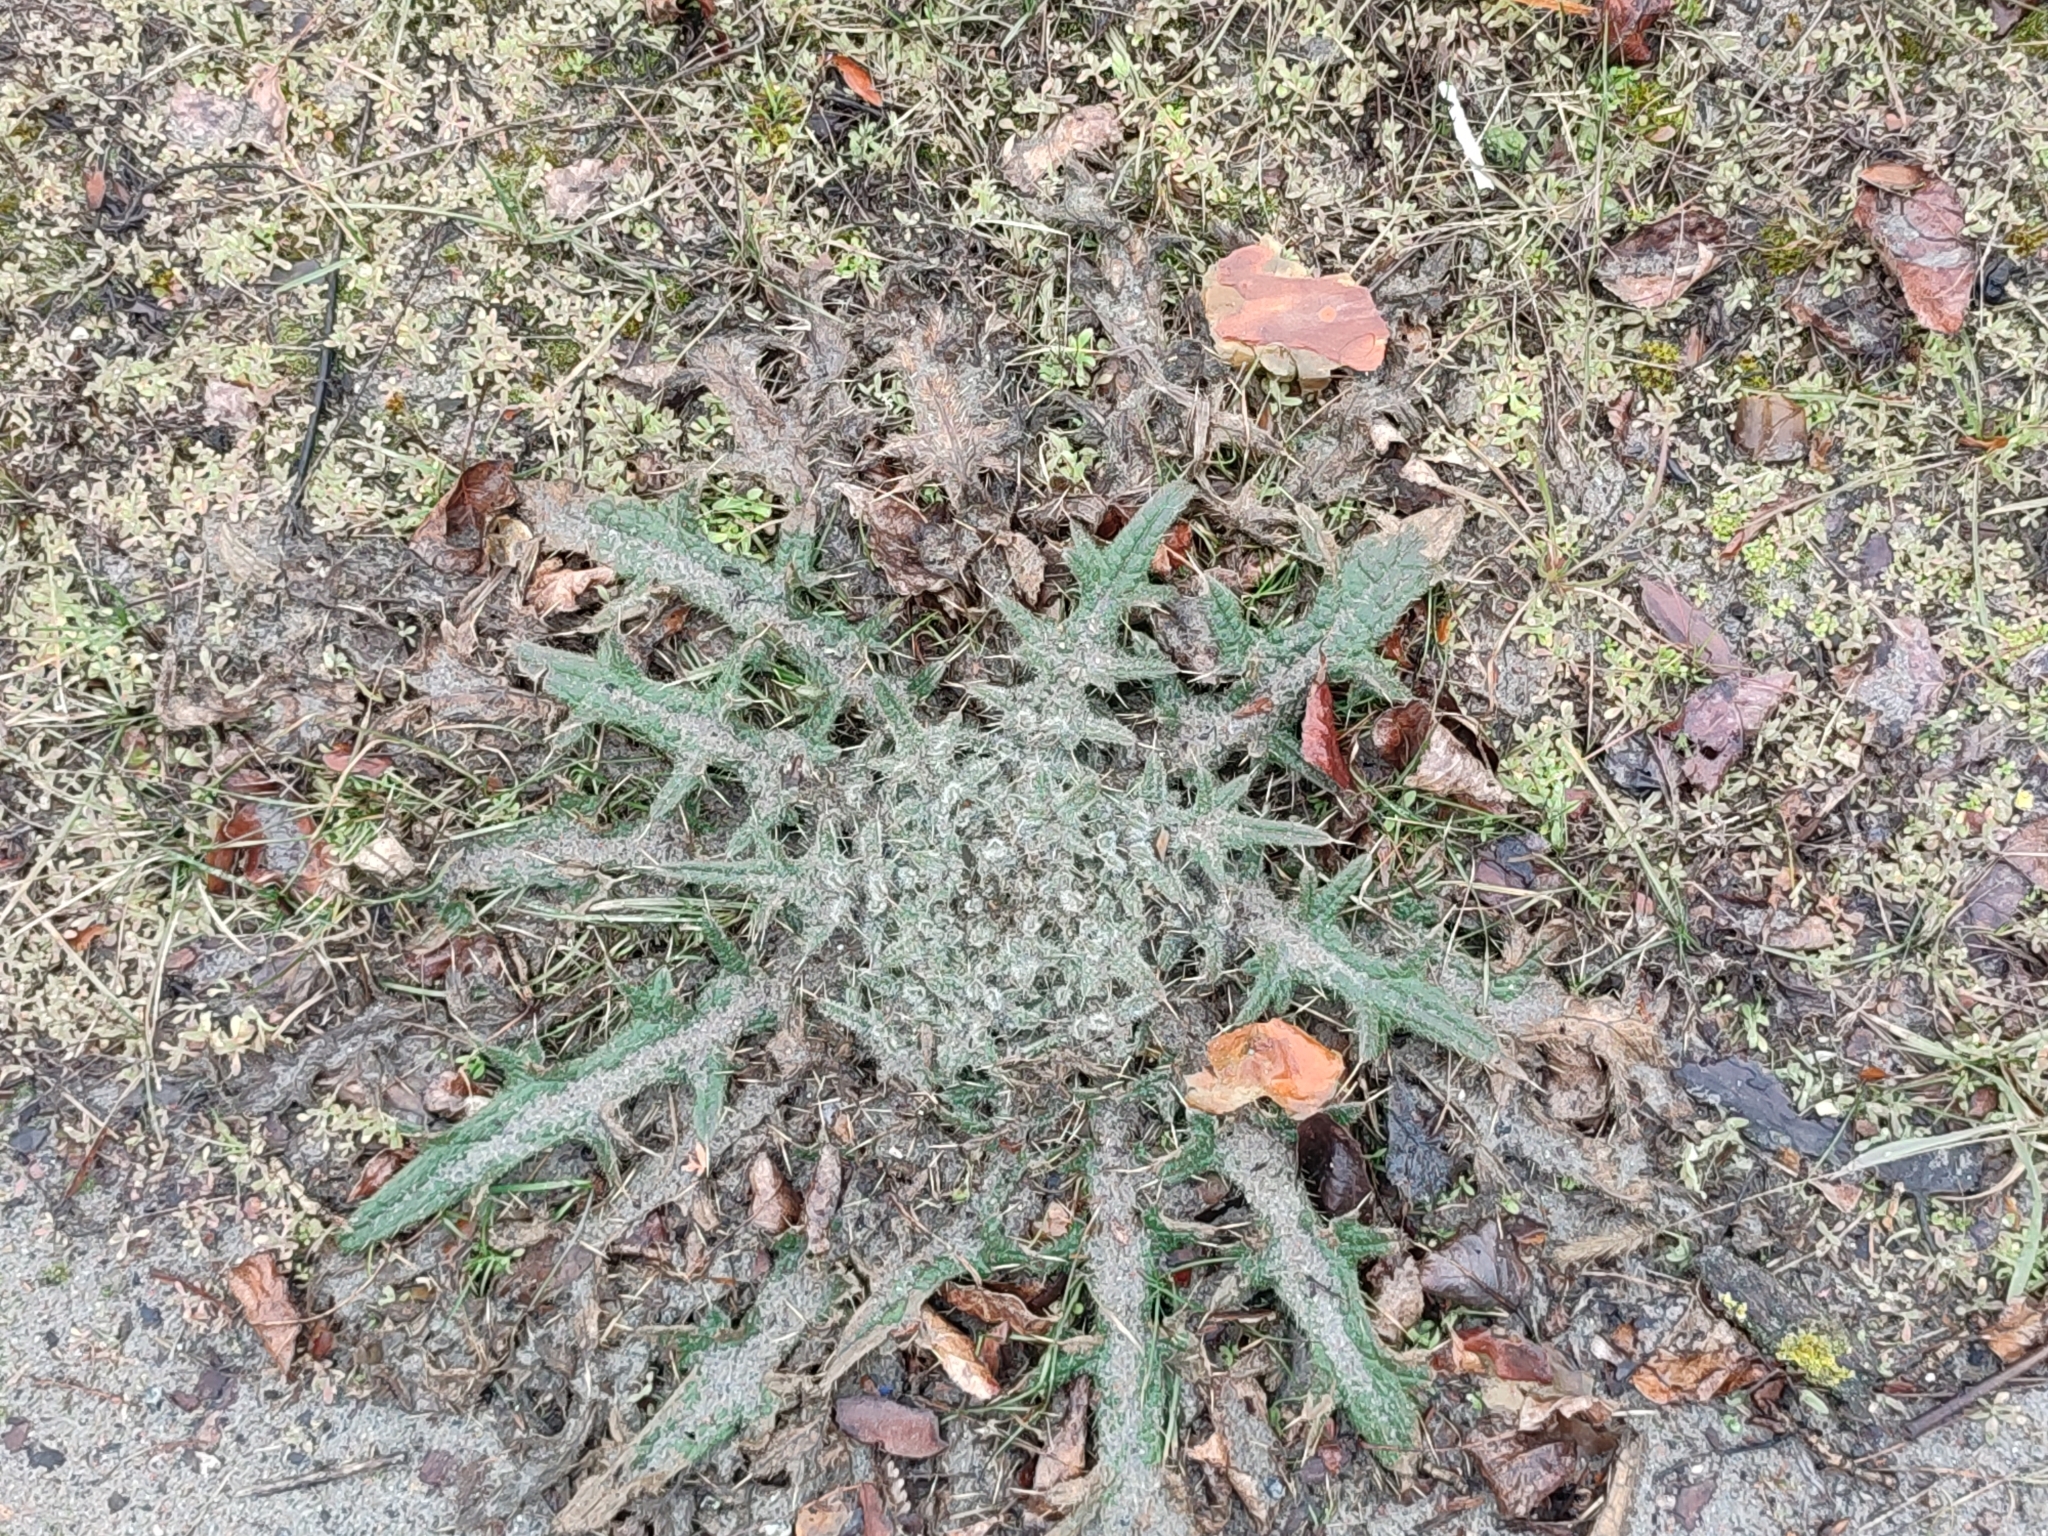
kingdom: Plantae
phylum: Tracheophyta
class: Magnoliopsida
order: Asterales
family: Asteraceae
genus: Cirsium
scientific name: Cirsium vulgare
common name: Bull thistle
